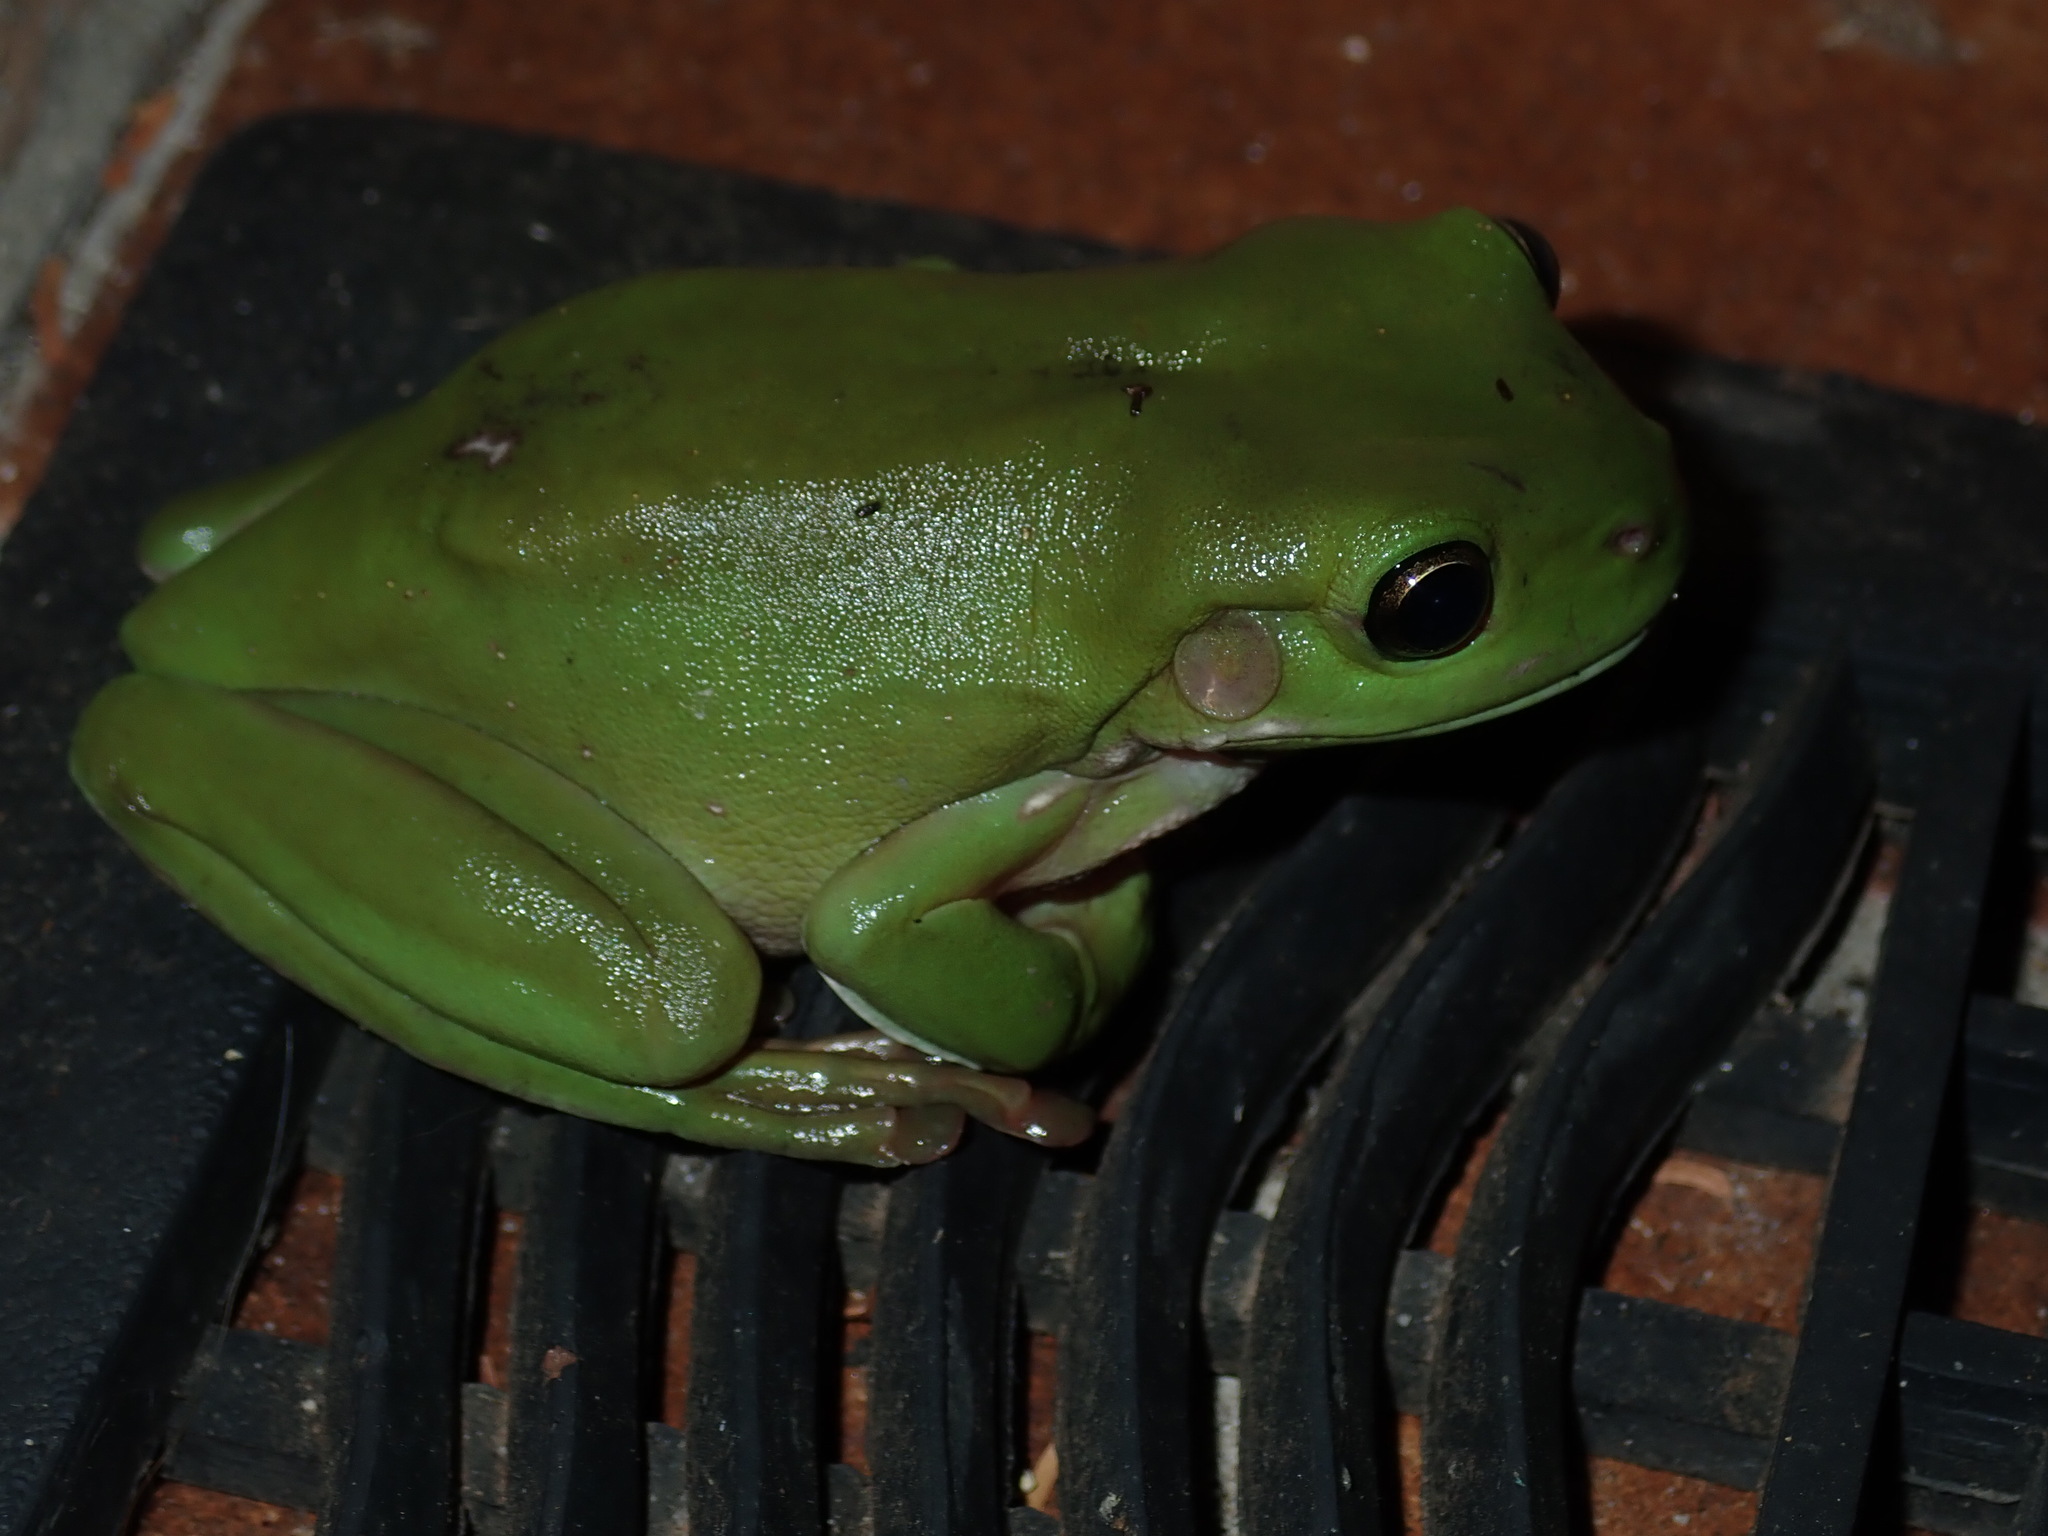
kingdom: Animalia
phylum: Chordata
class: Amphibia
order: Anura
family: Pelodryadidae
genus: Ranoidea
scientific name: Ranoidea caerulea
